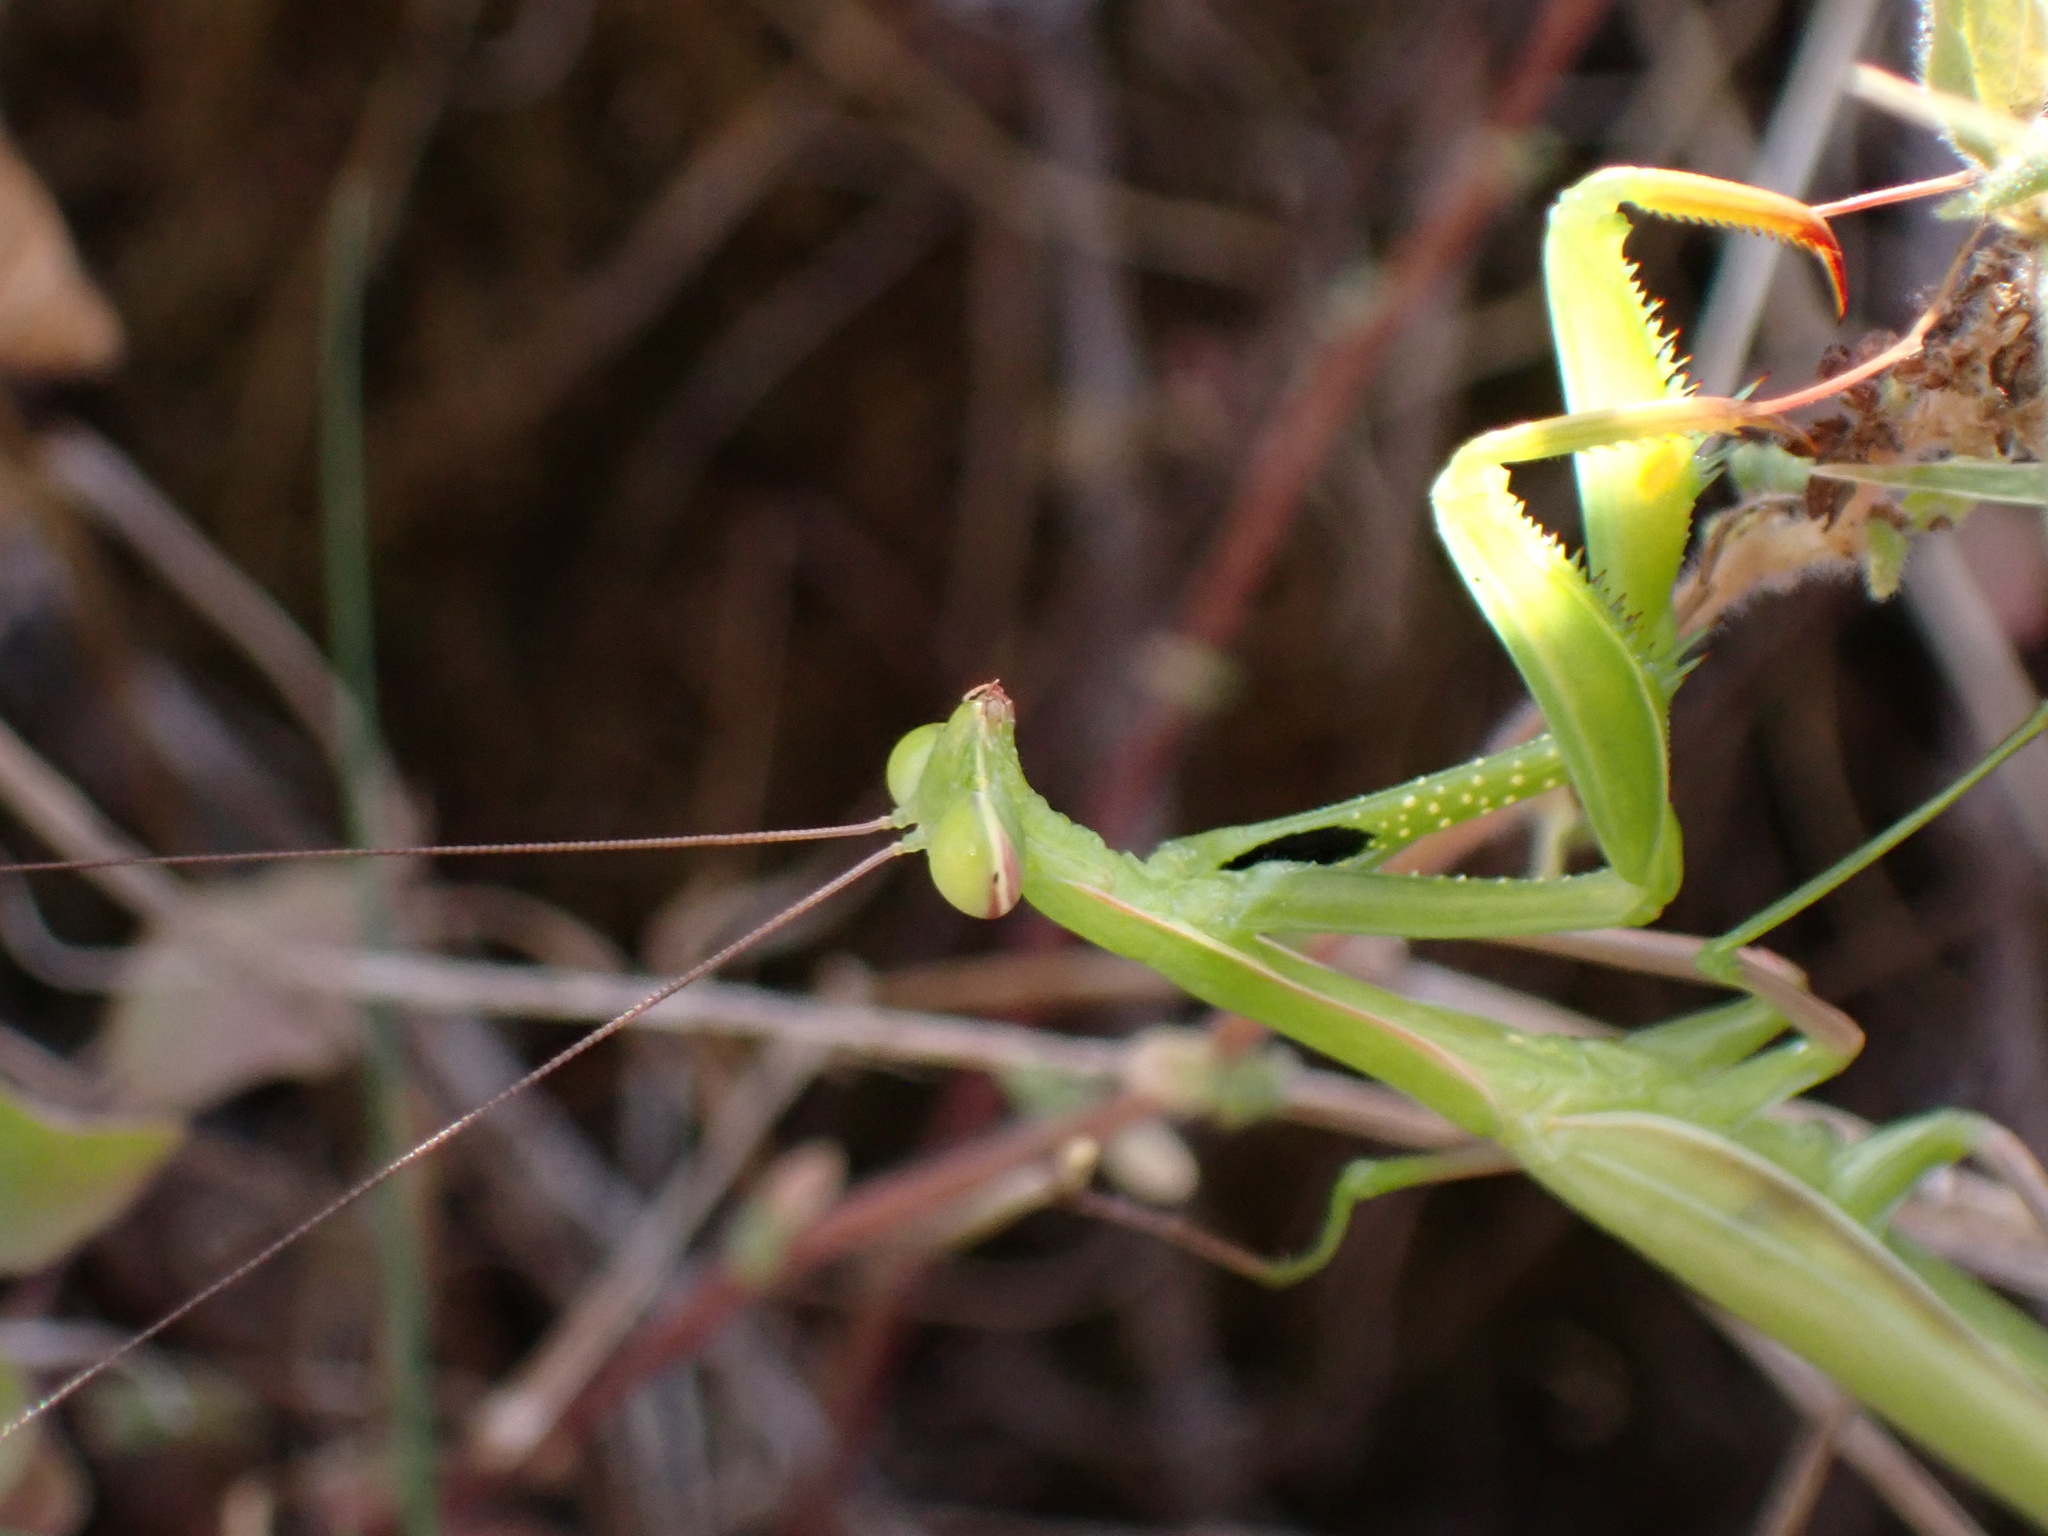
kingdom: Animalia
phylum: Arthropoda
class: Insecta
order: Mantodea
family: Mantidae
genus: Mantis
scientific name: Mantis religiosa
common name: Praying mantis
